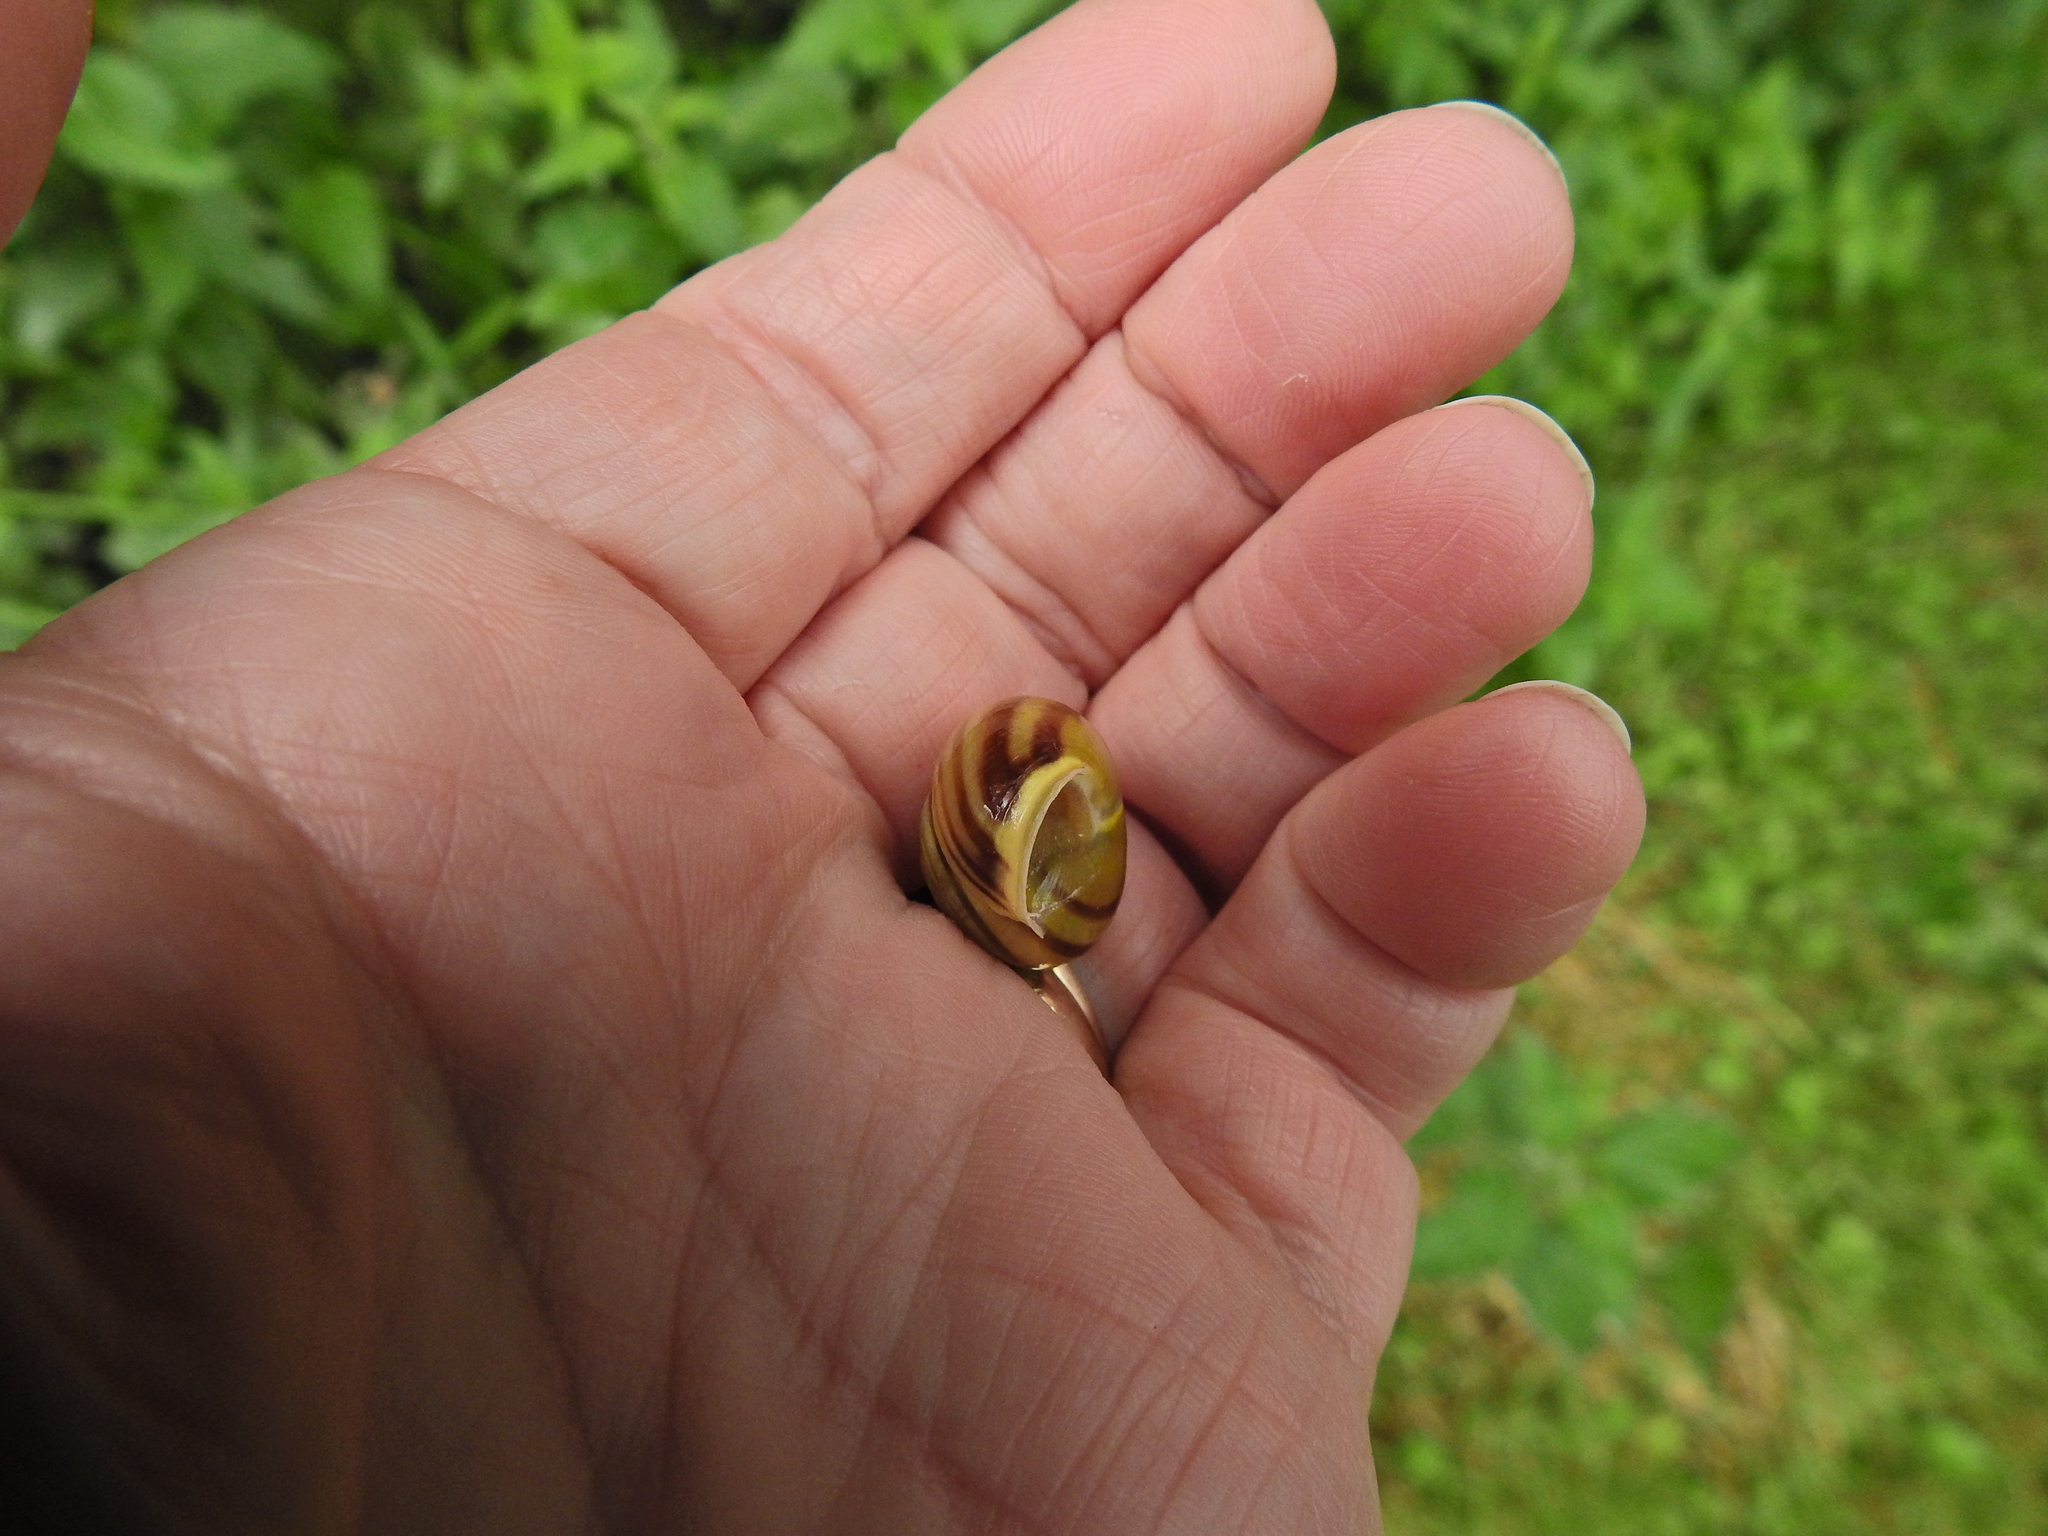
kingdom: Animalia
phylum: Mollusca
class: Gastropoda
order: Stylommatophora
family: Helicidae
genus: Cepaea
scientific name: Cepaea hortensis
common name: White-lip gardensnail
